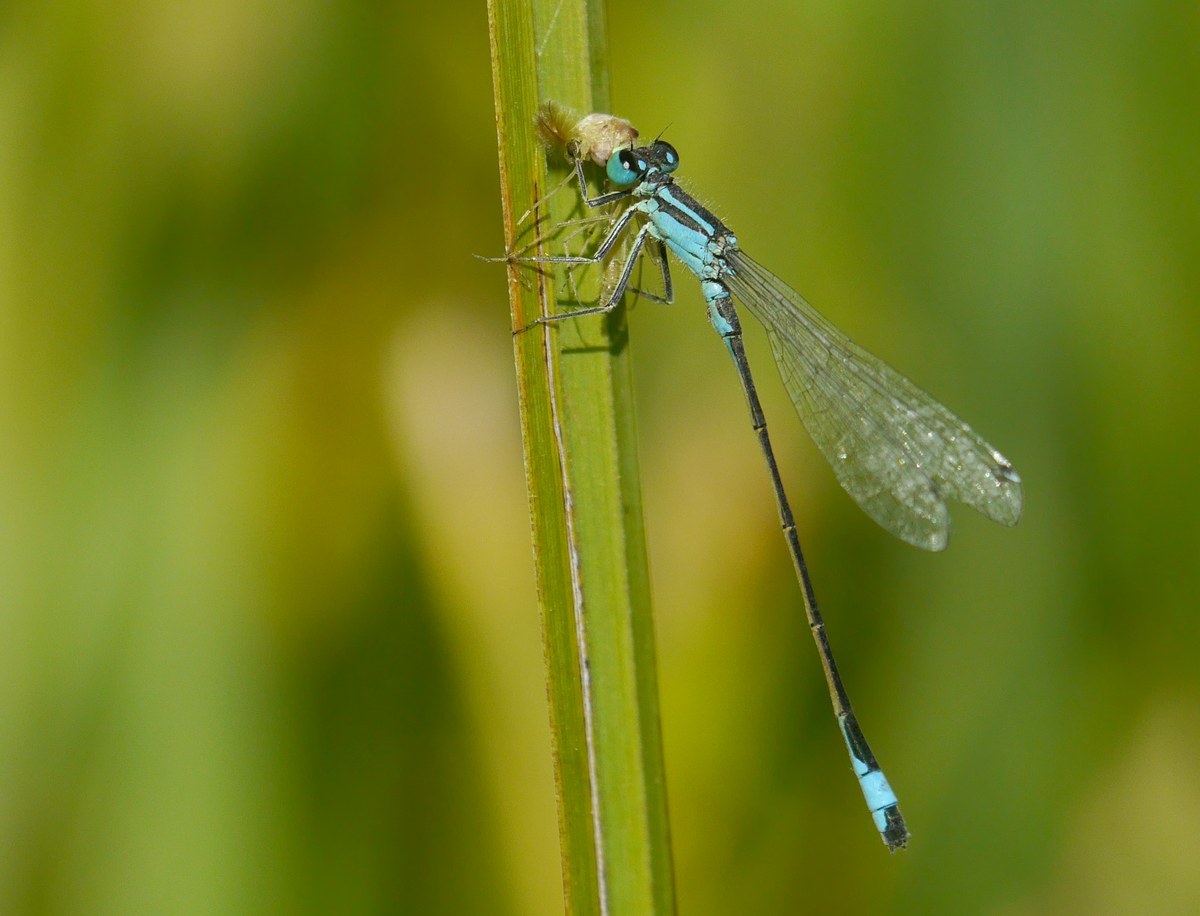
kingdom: Animalia
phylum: Arthropoda
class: Insecta
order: Odonata
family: Coenagrionidae
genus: Ischnura
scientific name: Ischnura elegans
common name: Blue-tailed damselfly
